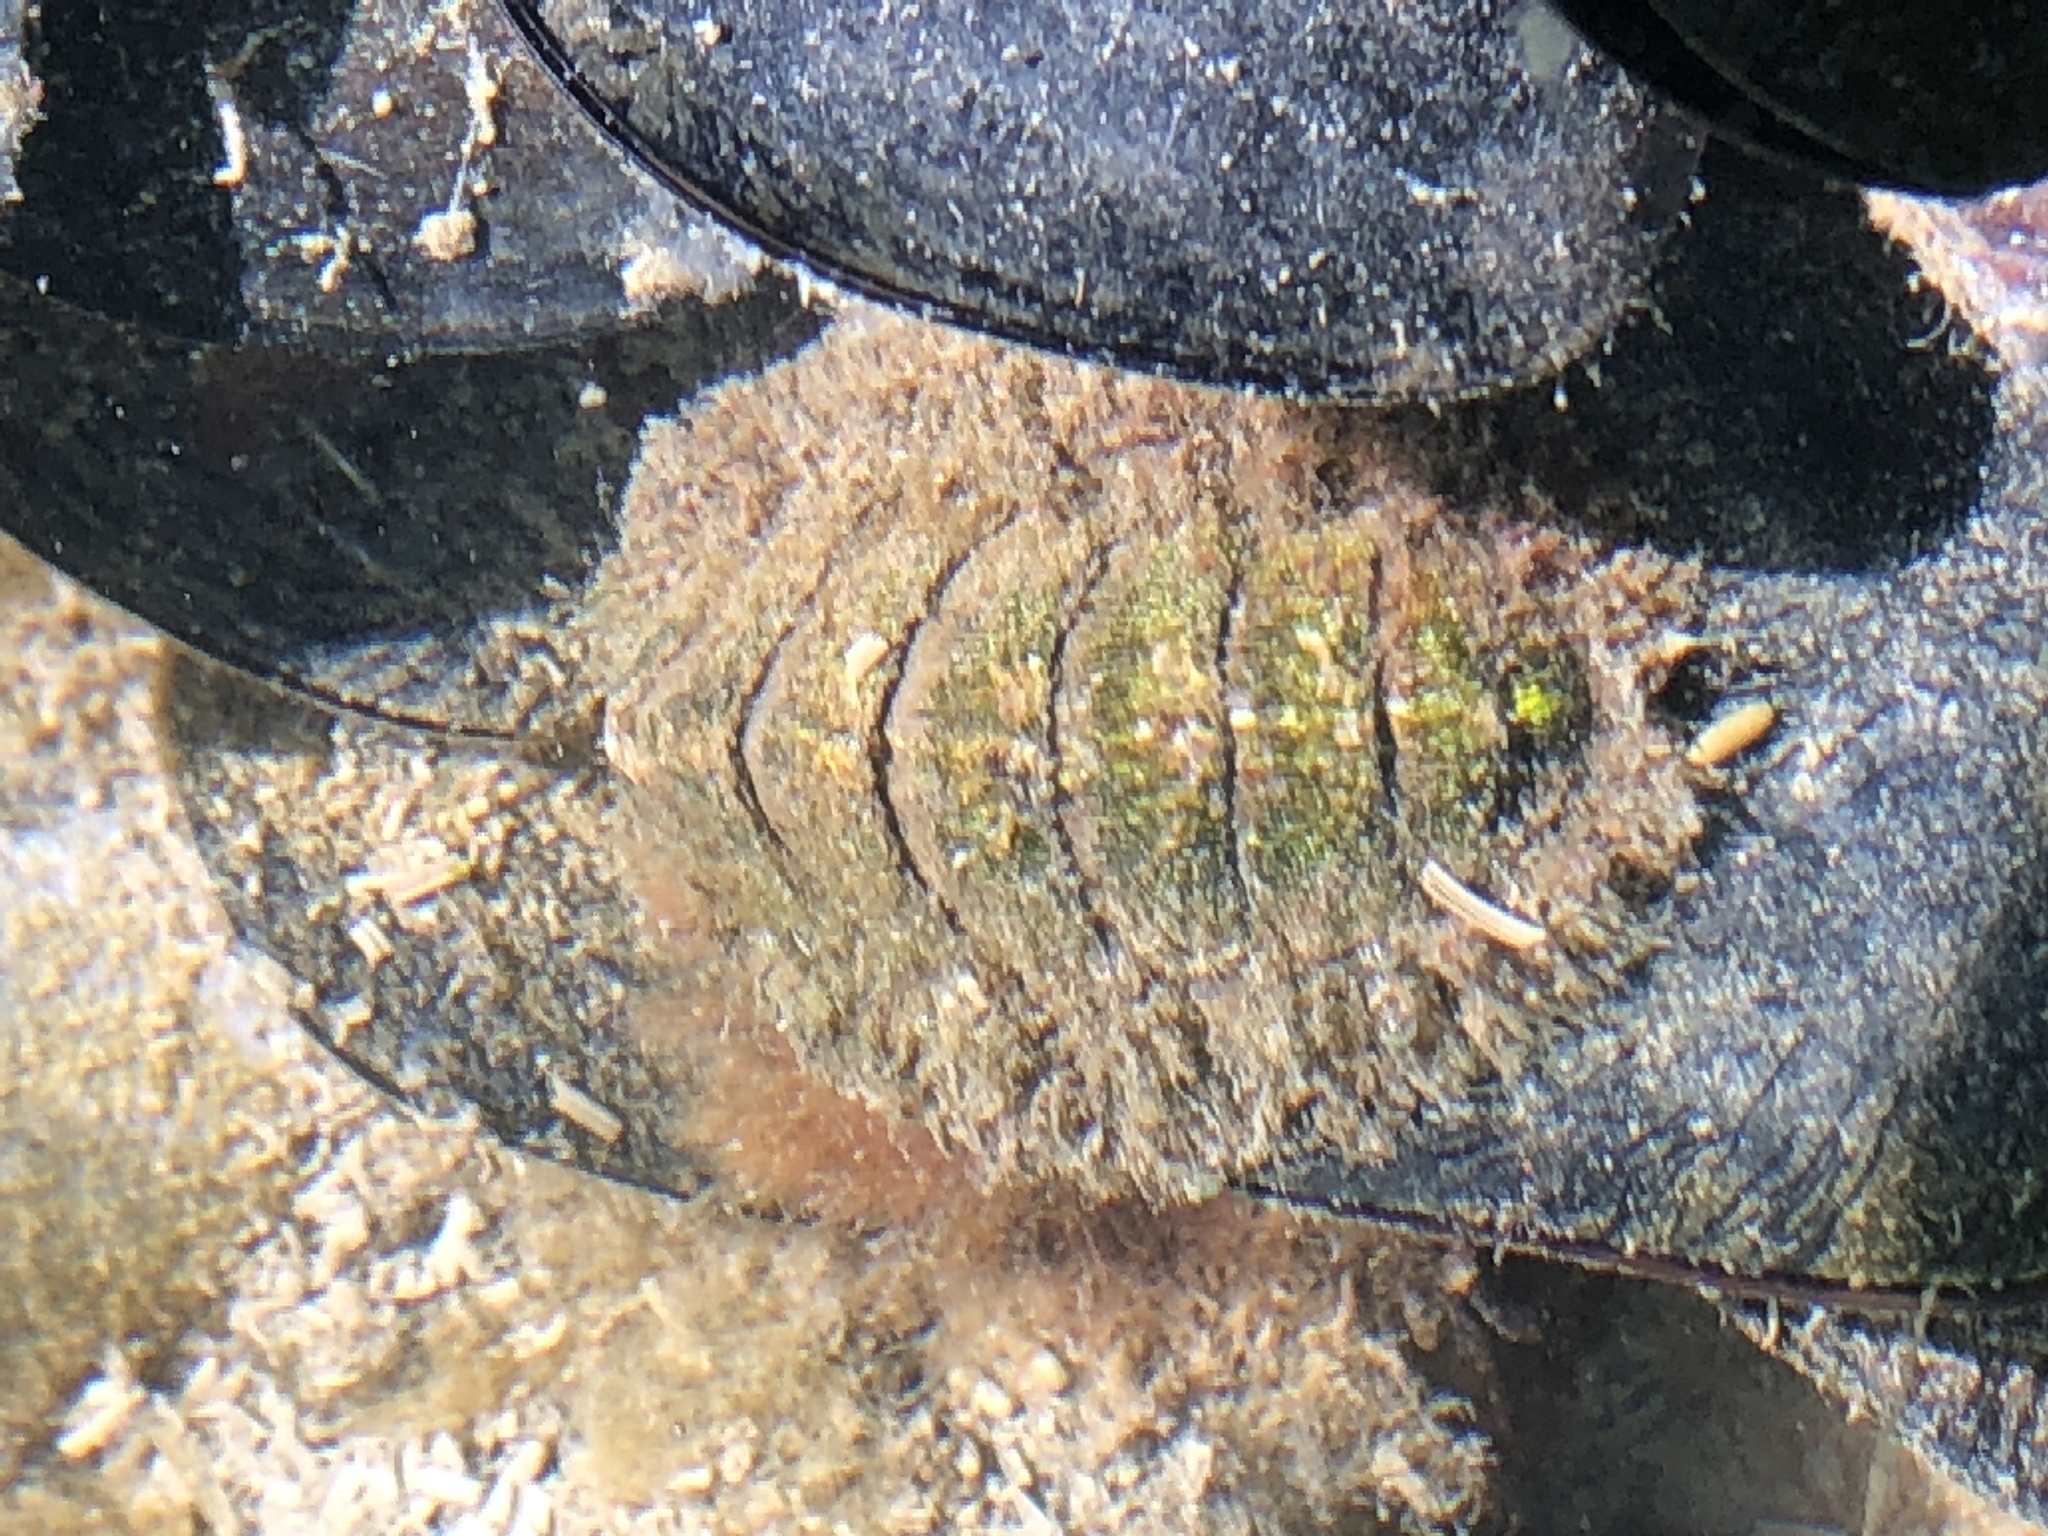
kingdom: Animalia
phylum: Mollusca
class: Polyplacophora
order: Chitonida
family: Mopaliidae
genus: Mopalia
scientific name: Mopalia muscosa
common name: Mossy chiton
